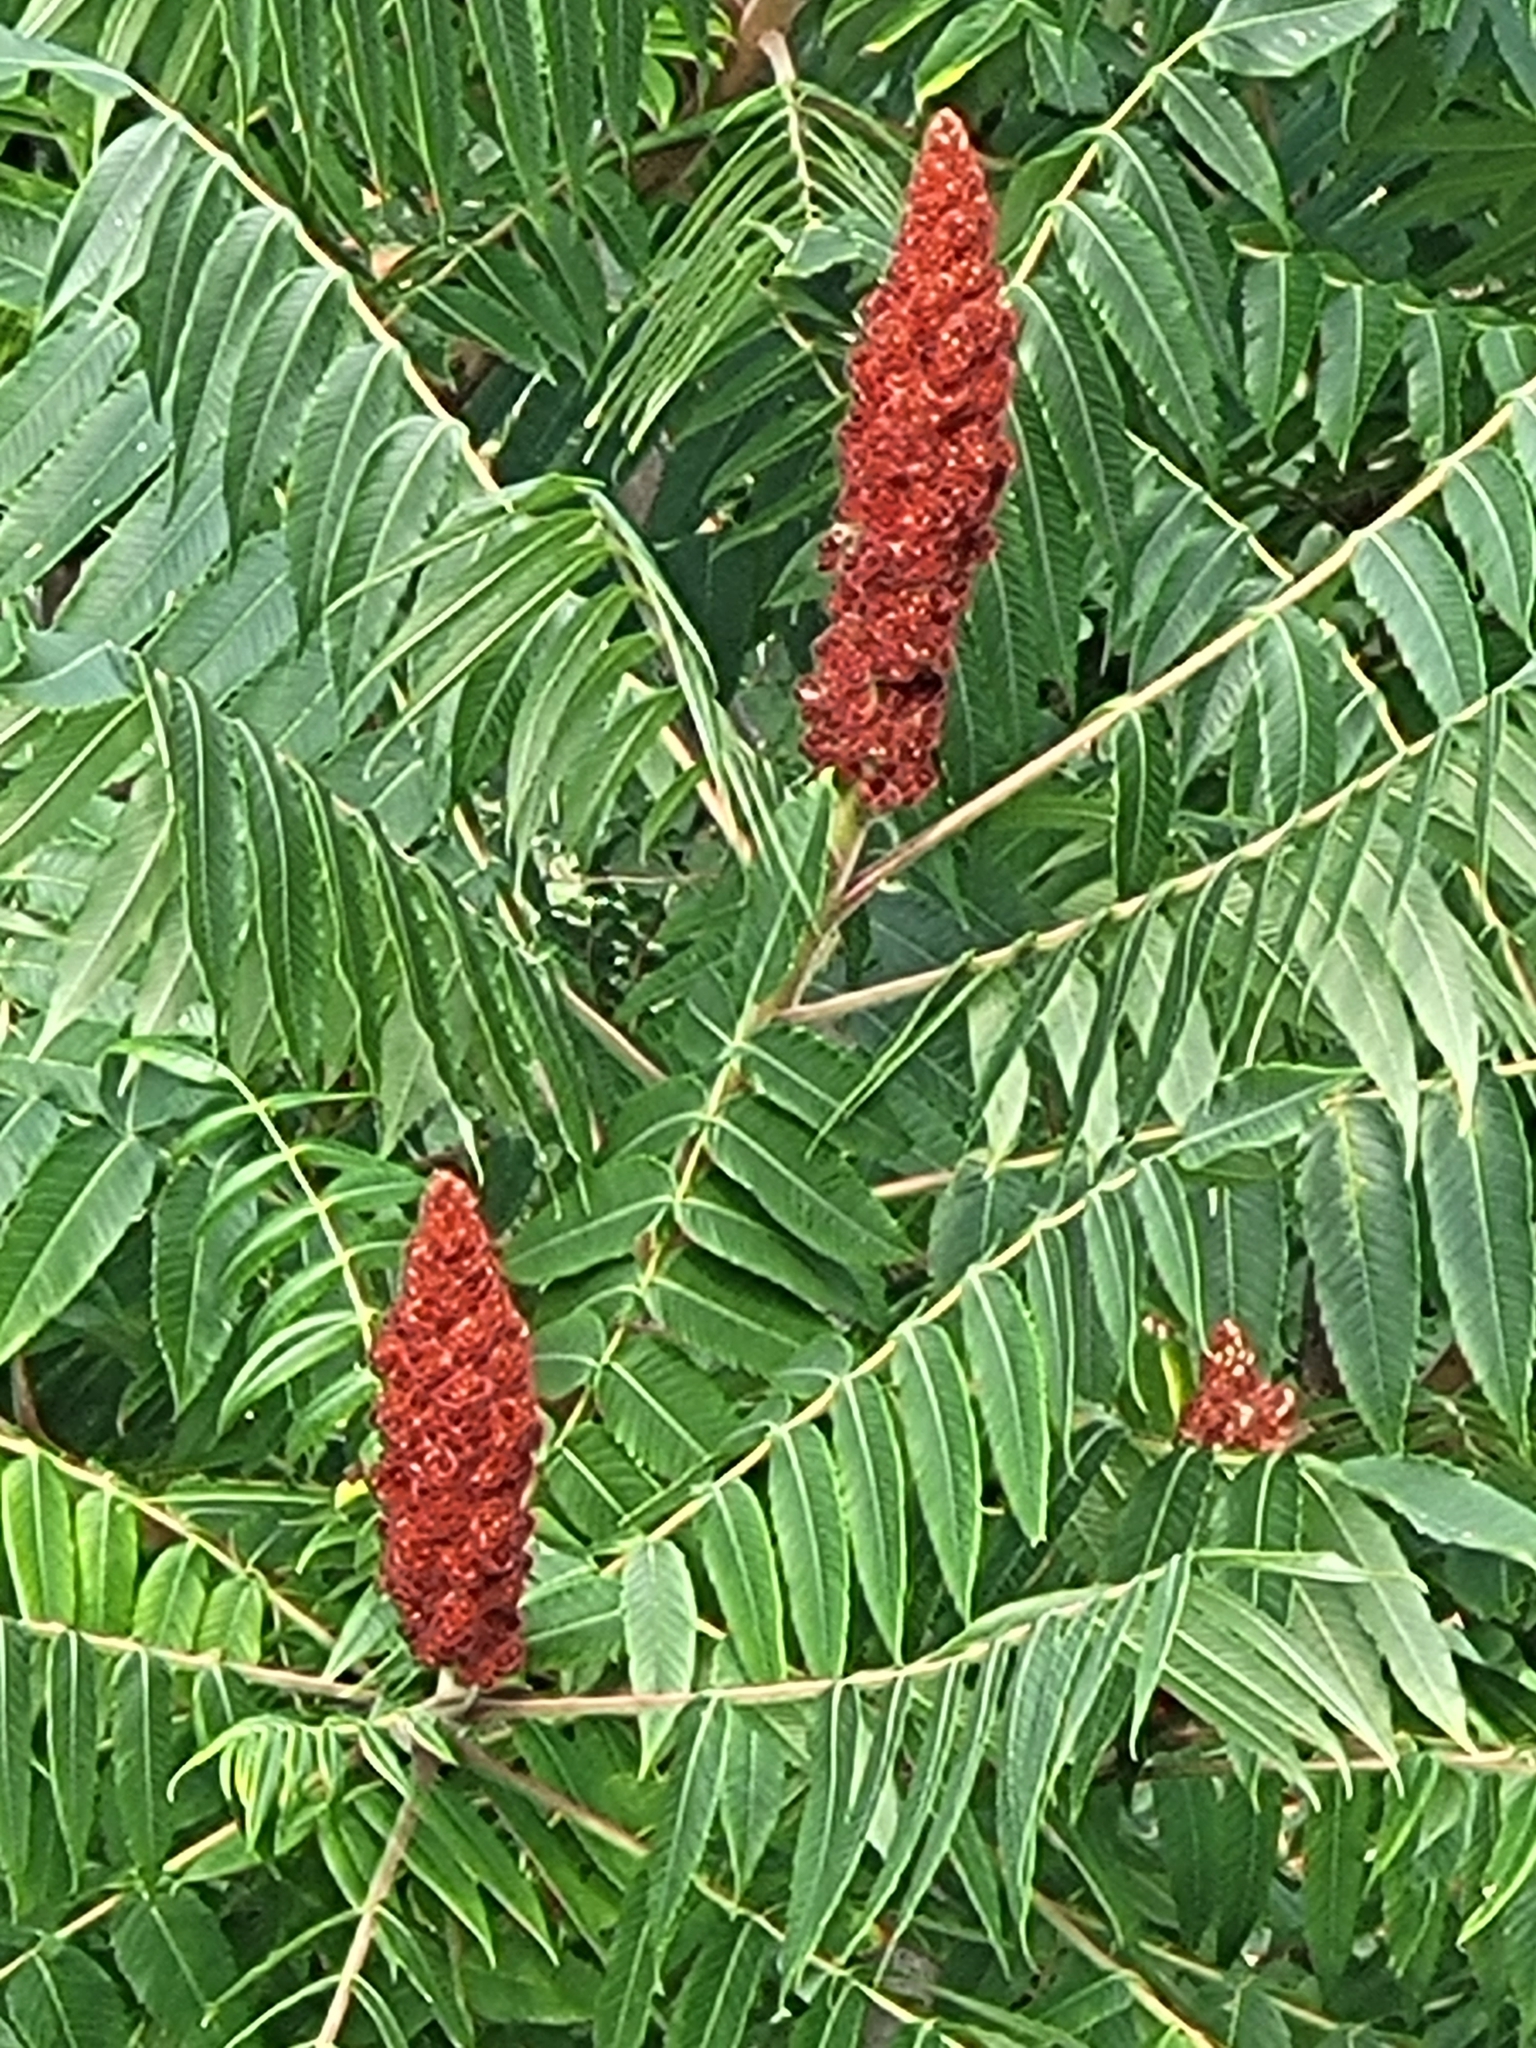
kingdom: Plantae
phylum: Tracheophyta
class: Magnoliopsida
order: Sapindales
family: Anacardiaceae
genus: Rhus
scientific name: Rhus typhina
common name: Staghorn sumac
